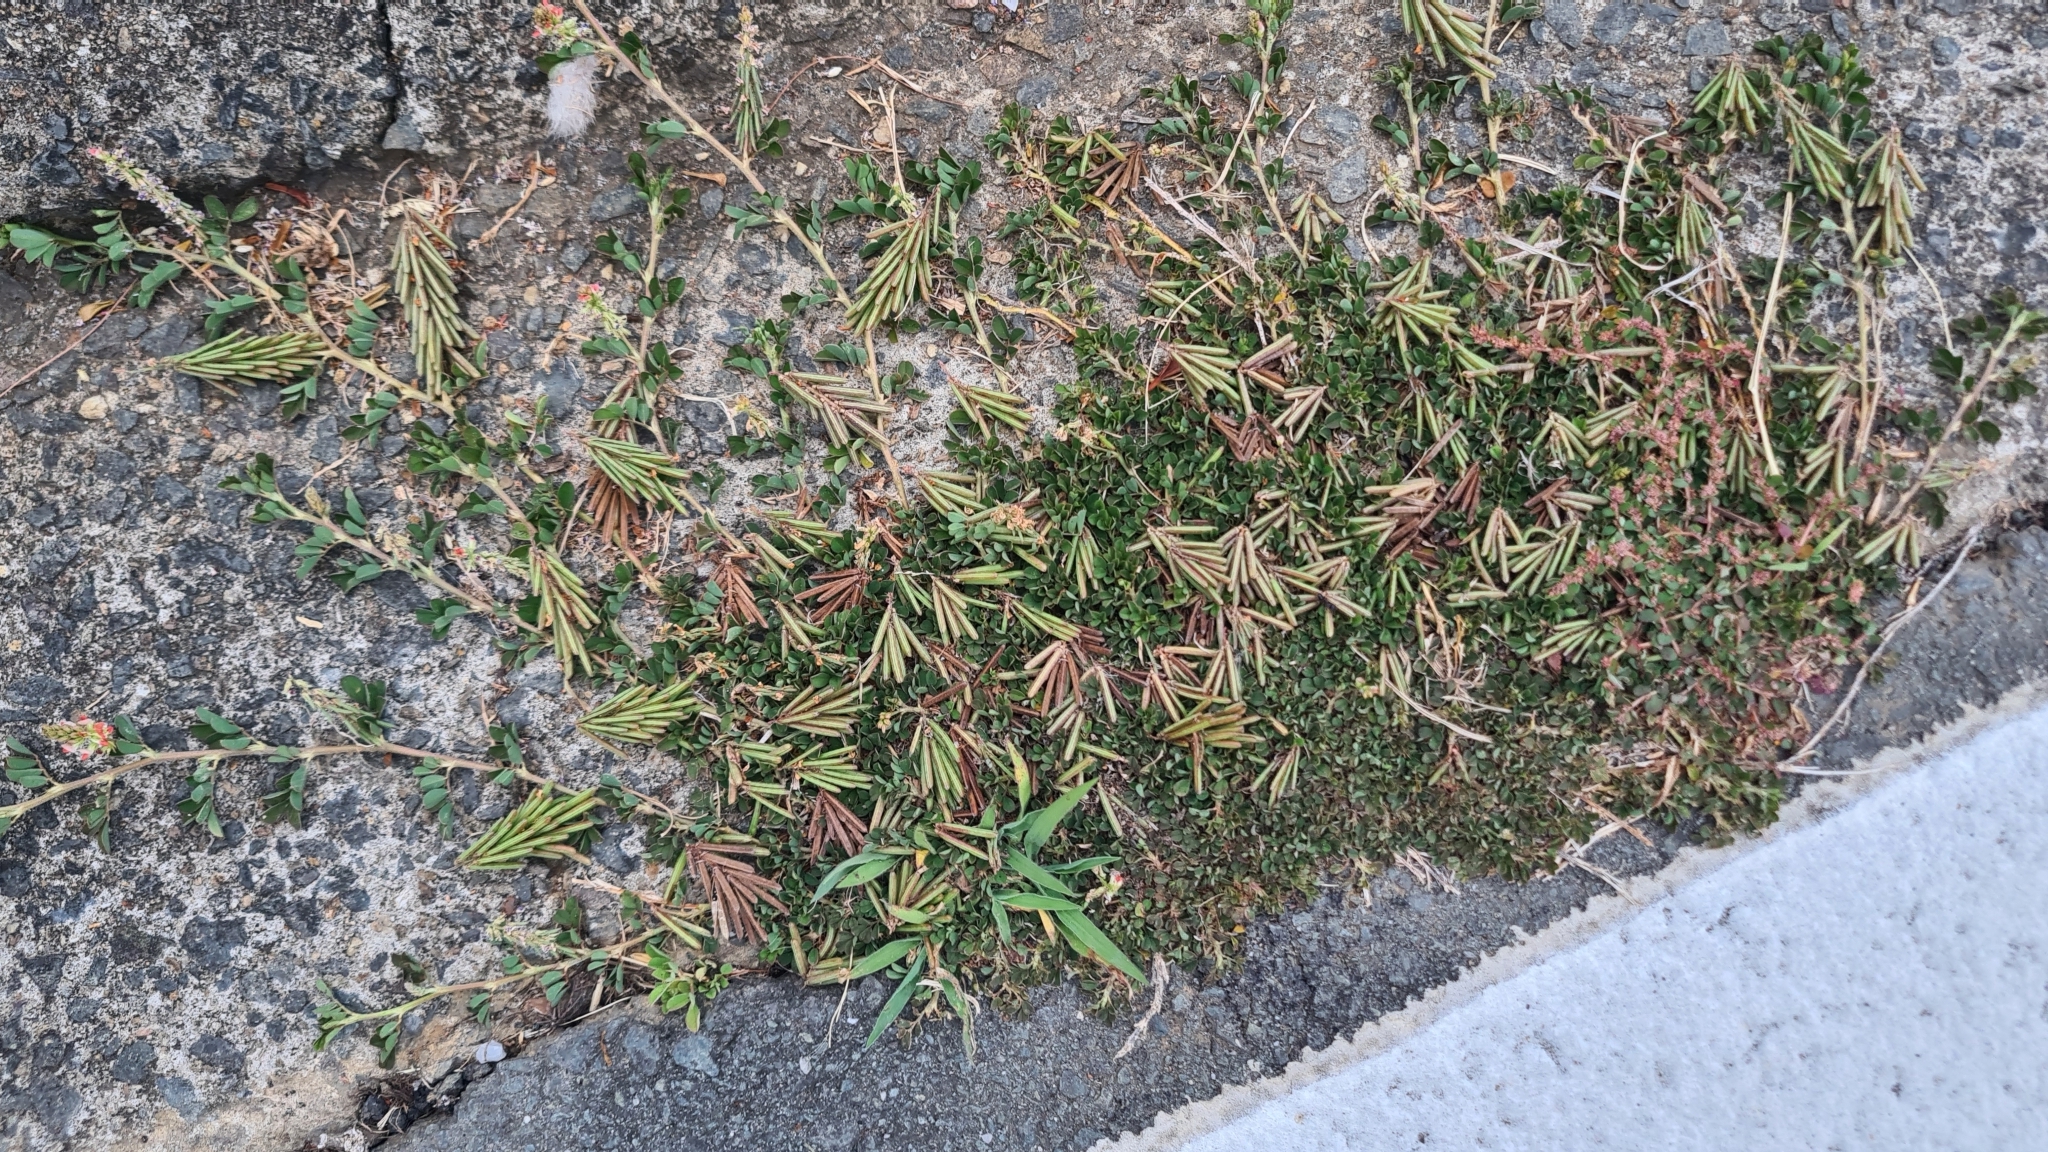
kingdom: Plantae
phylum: Tracheophyta
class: Magnoliopsida
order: Fabales
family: Fabaceae
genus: Indigofera
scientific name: Indigofera spicata
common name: Creeping indigo
